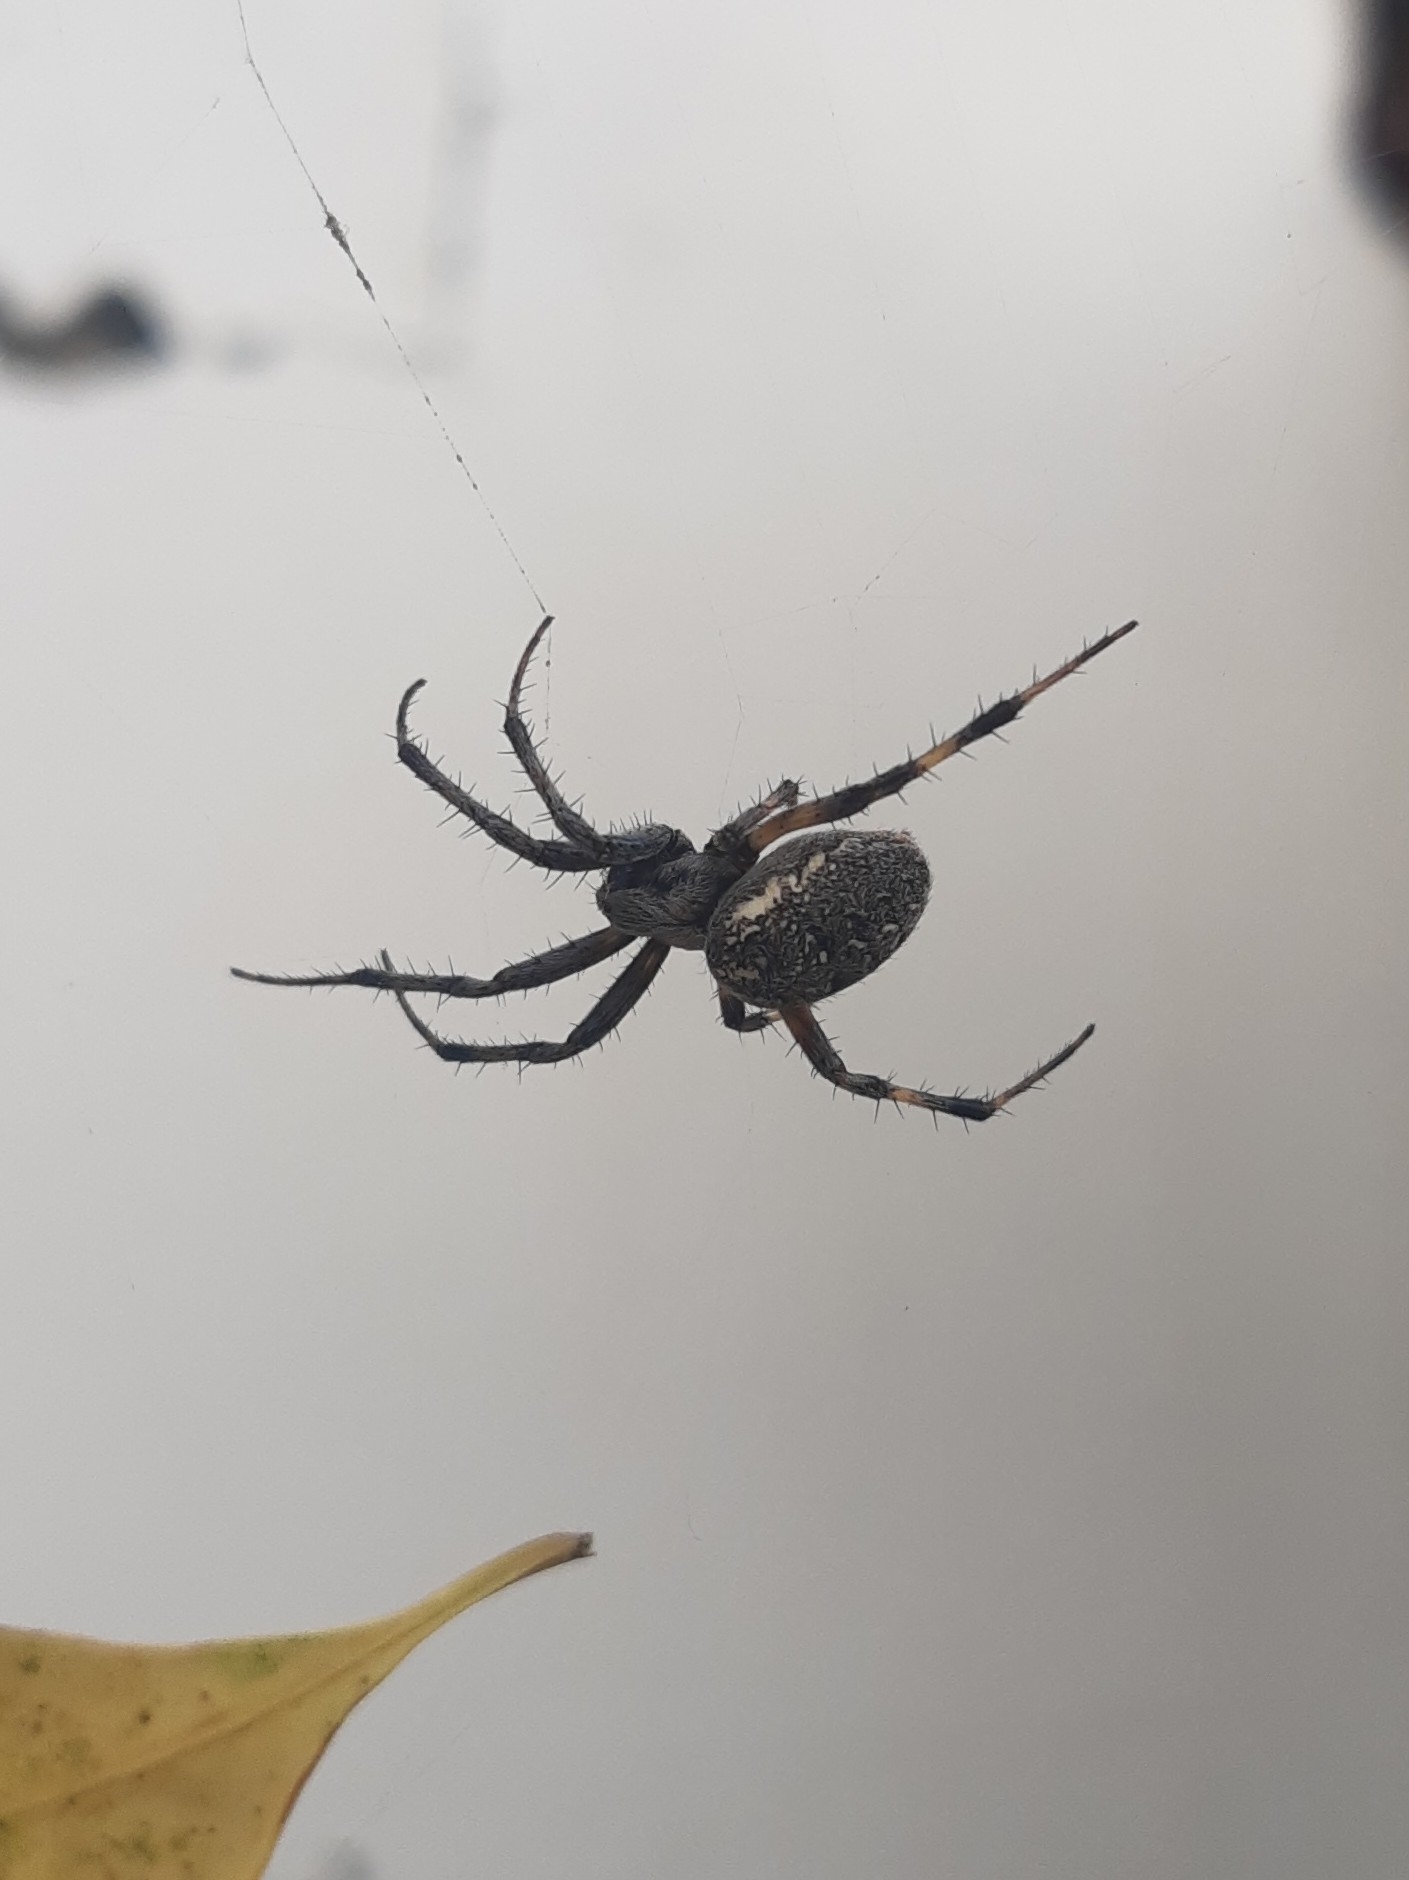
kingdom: Animalia
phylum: Arthropoda
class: Arachnida
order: Araneae
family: Araneidae
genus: Neoscona
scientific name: Neoscona oaxacensis
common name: Orb weavers
